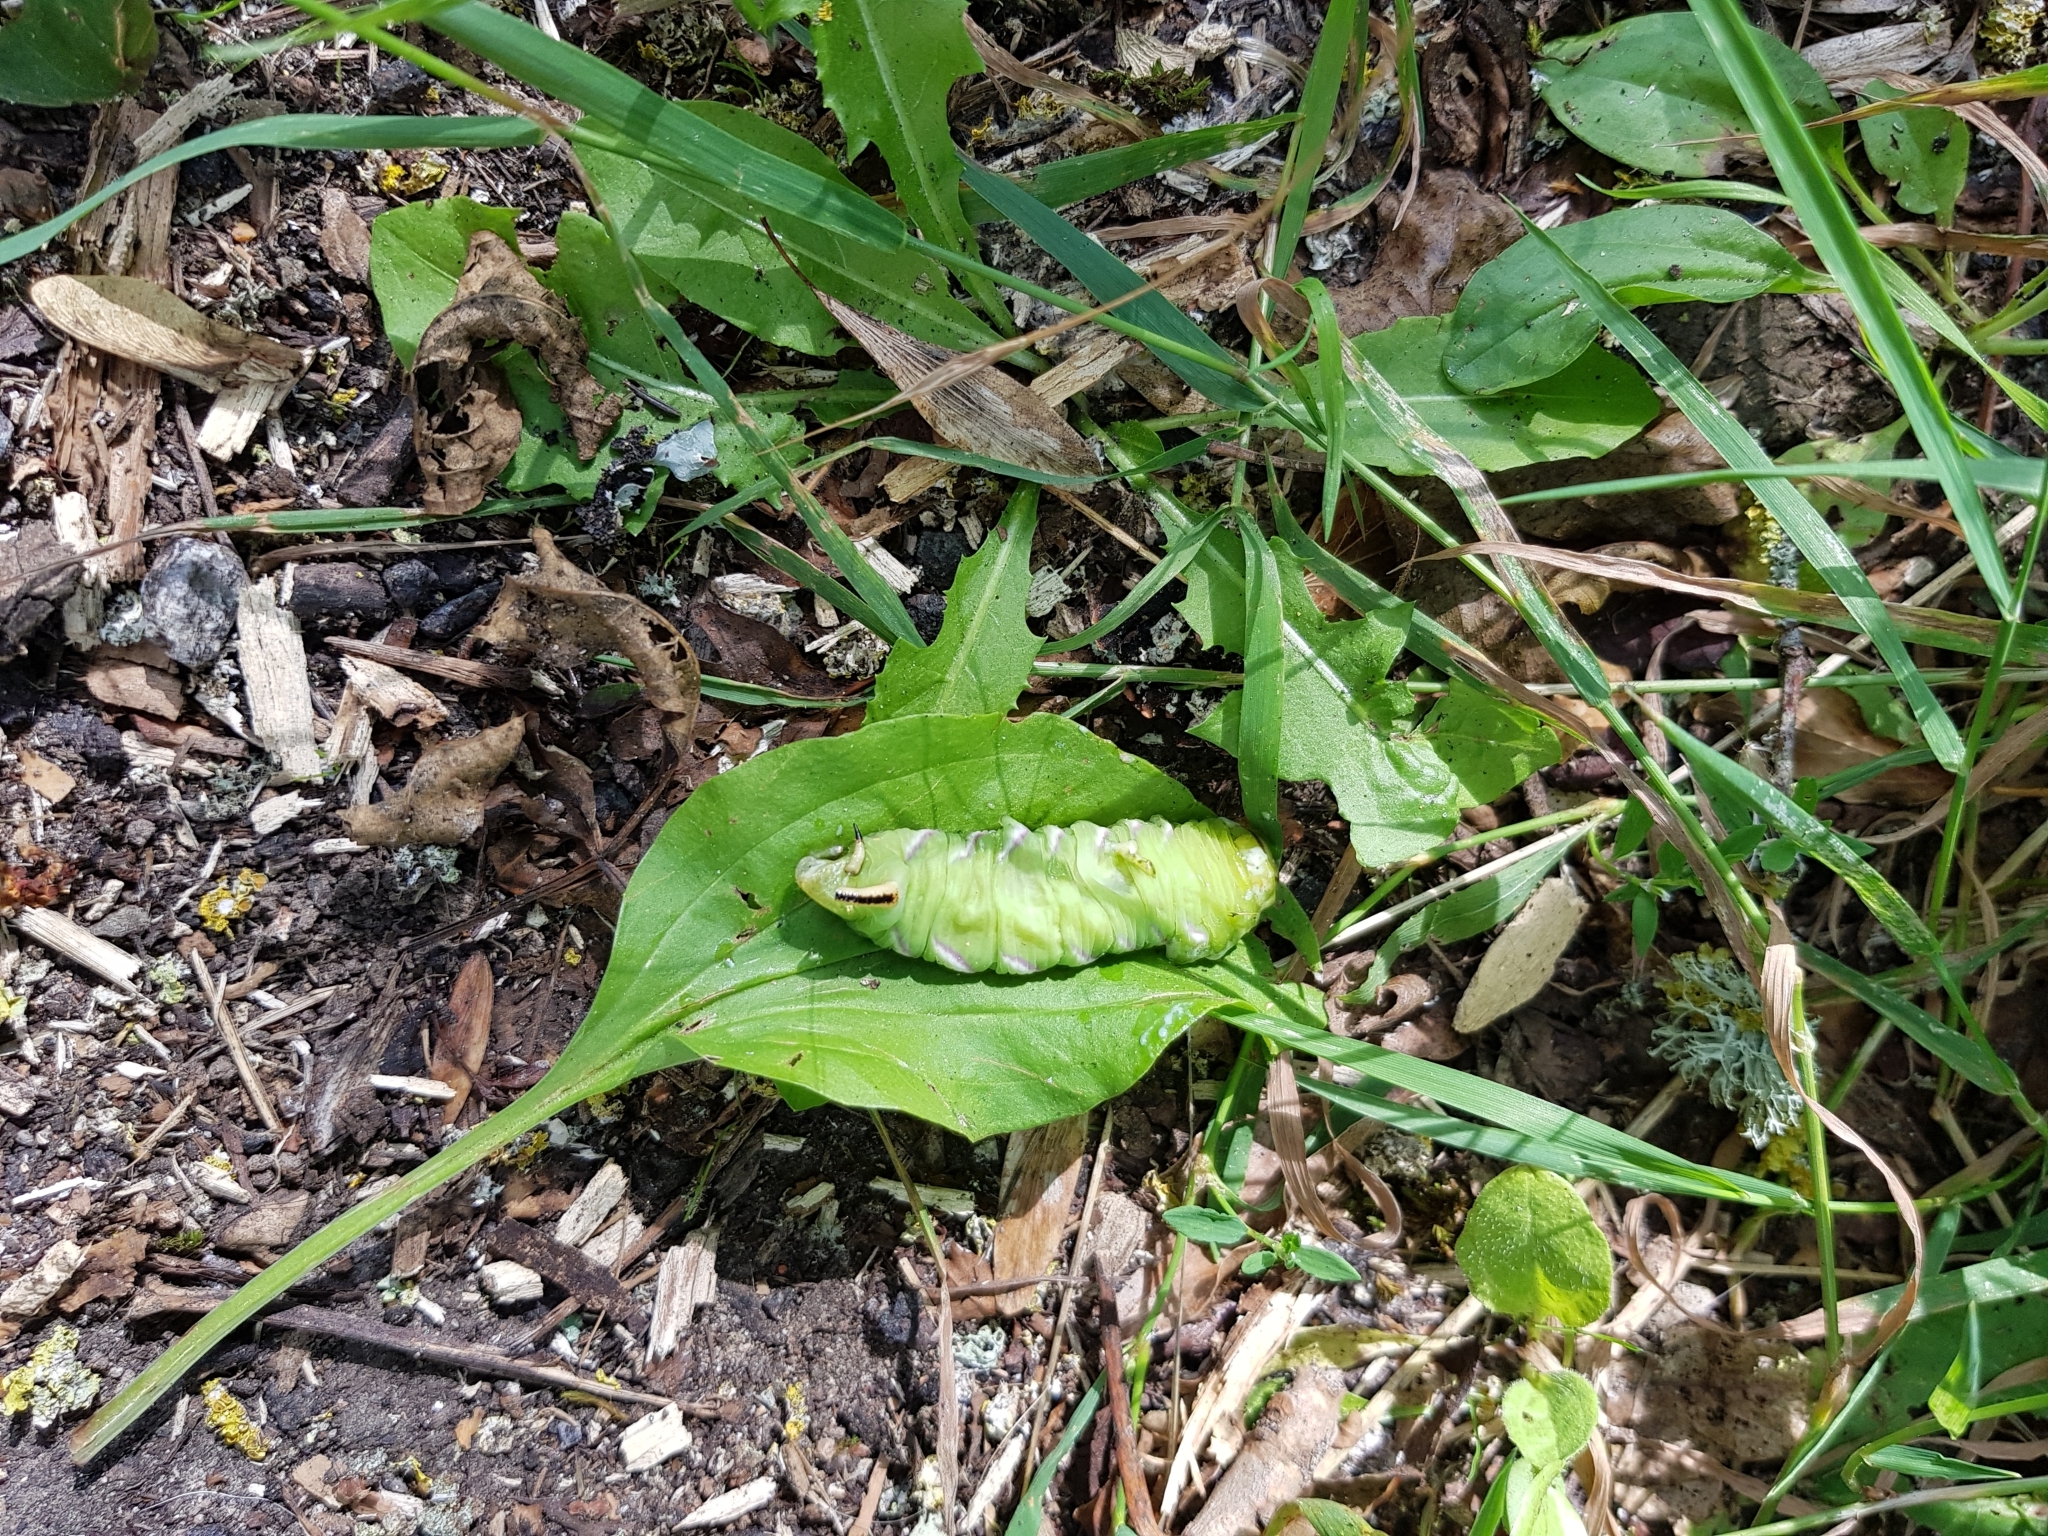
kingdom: Animalia
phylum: Arthropoda
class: Insecta
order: Lepidoptera
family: Sphingidae
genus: Sphinx
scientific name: Sphinx ligustri
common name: Privet hawk-moth
